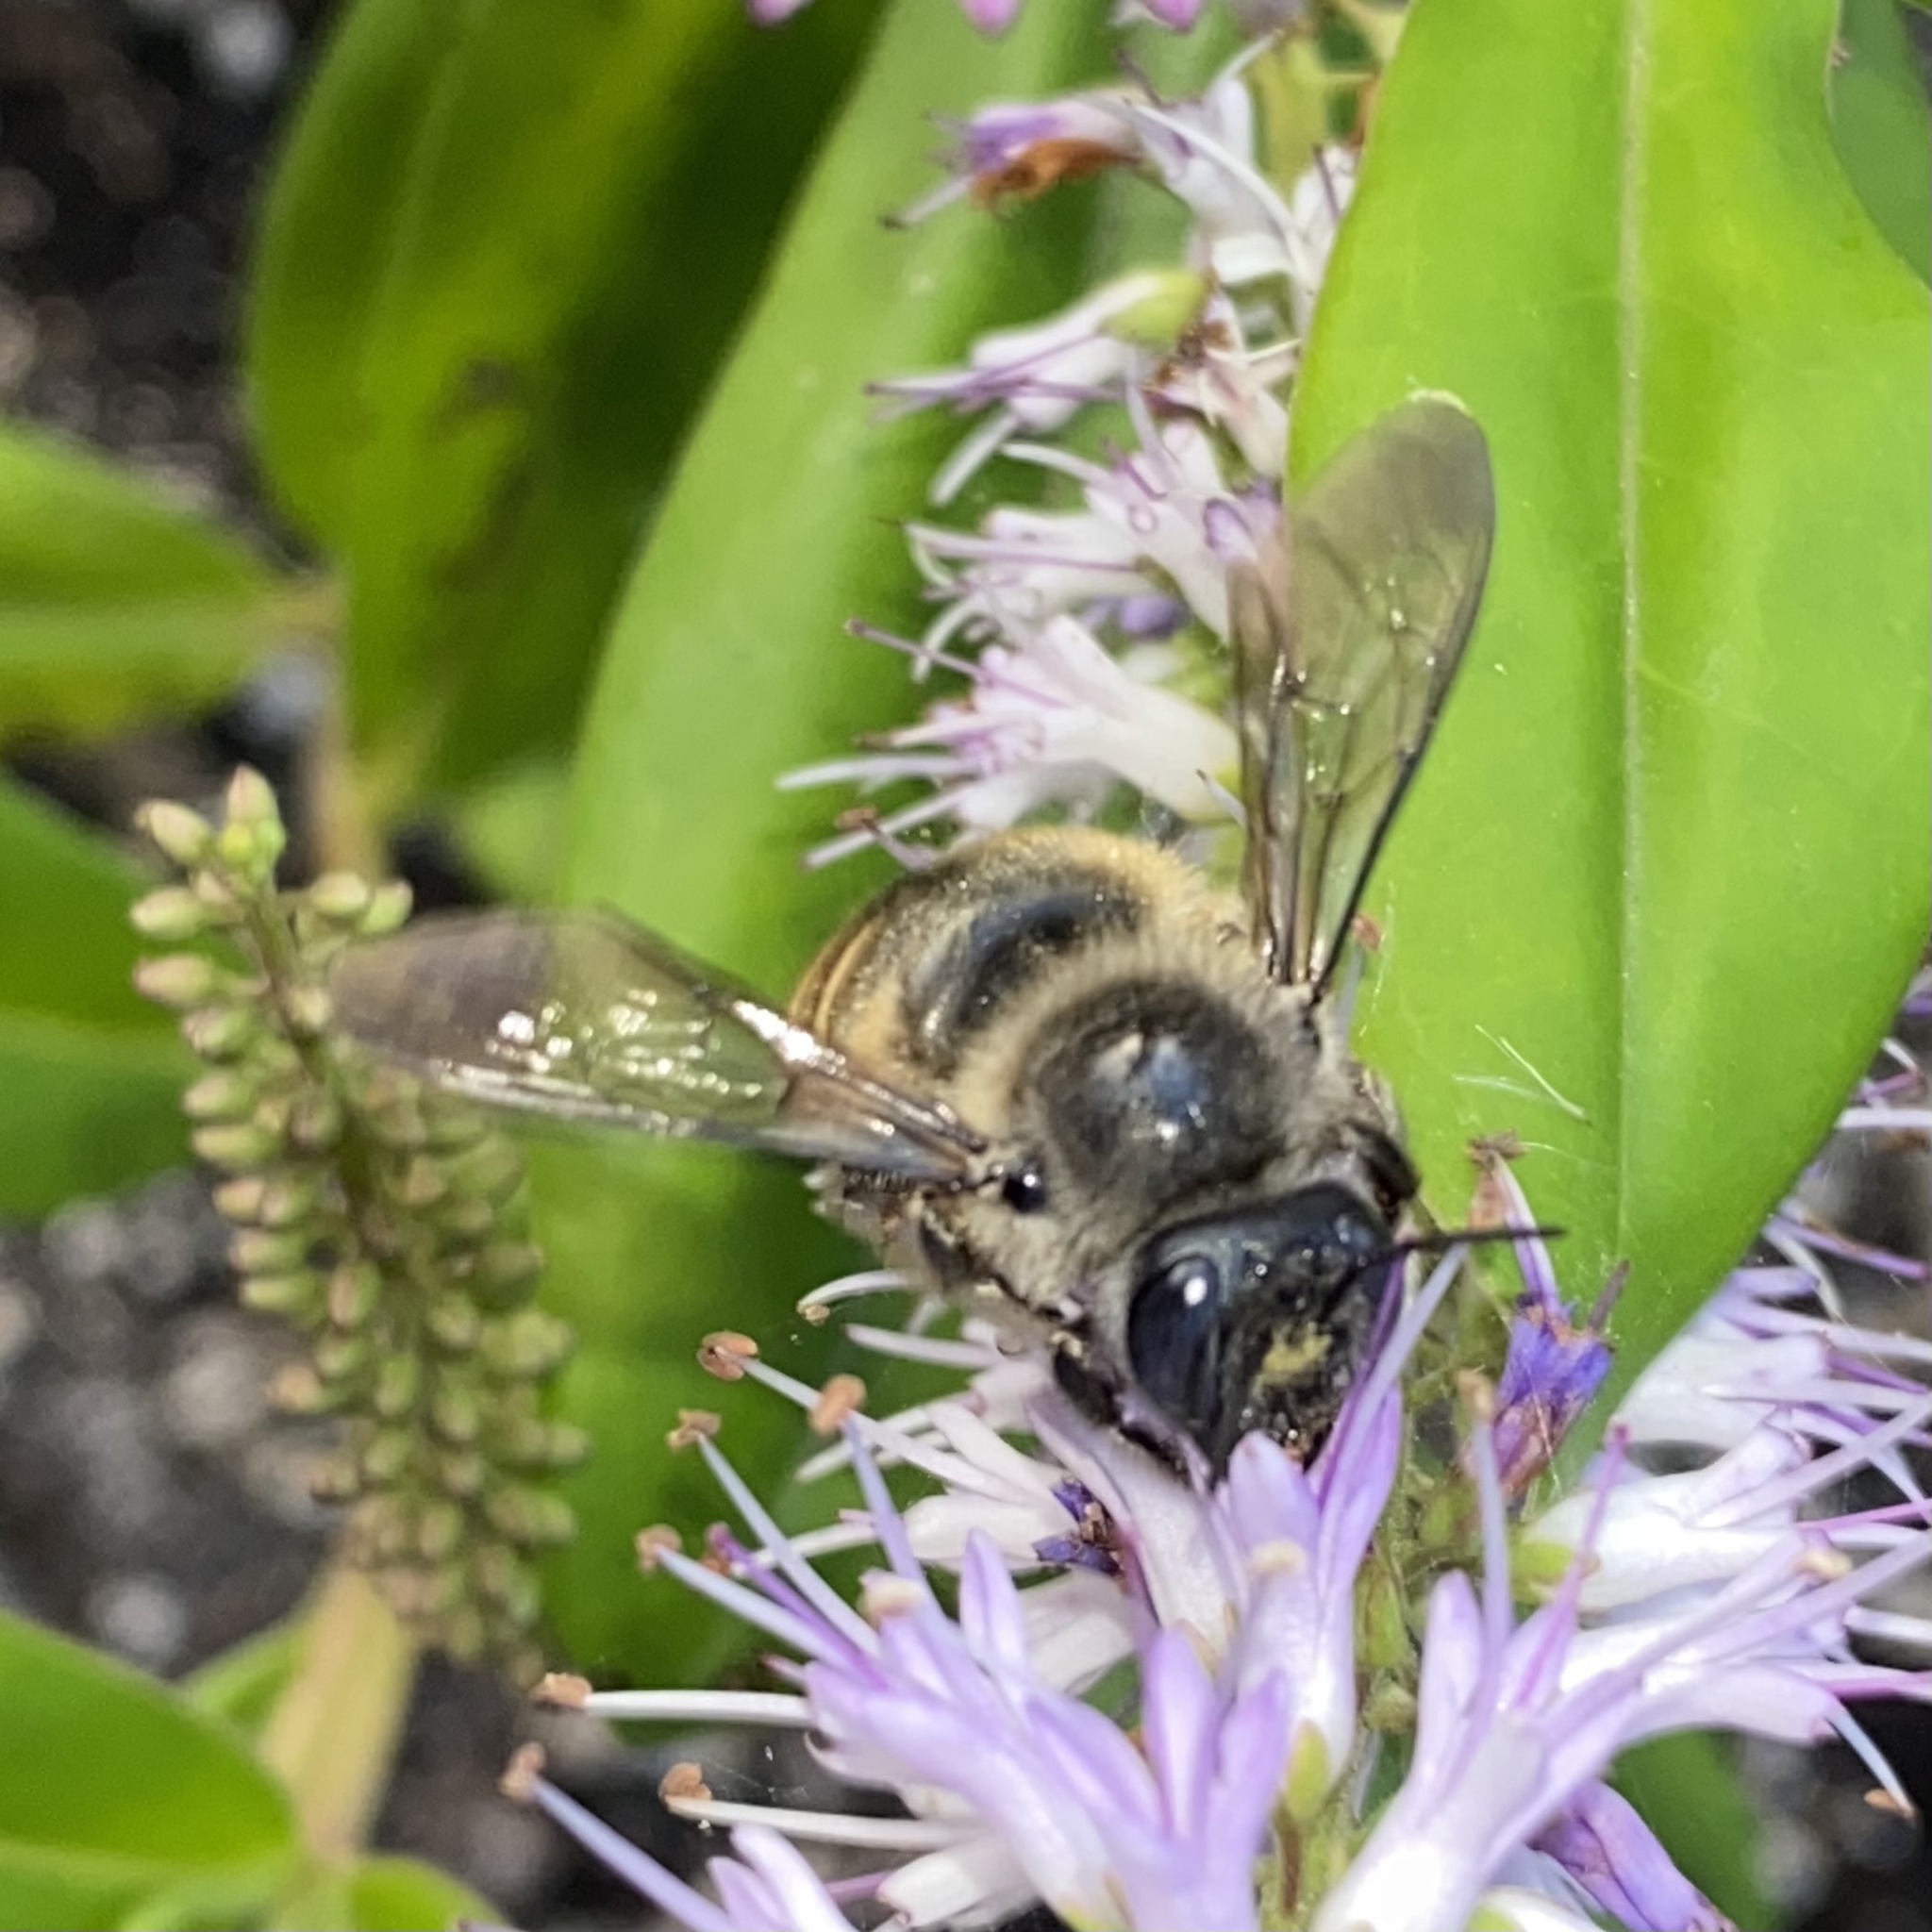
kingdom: Animalia
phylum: Arthropoda
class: Insecta
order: Hymenoptera
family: Apidae
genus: Xylocopa
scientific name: Xylocopa tabaniformis
